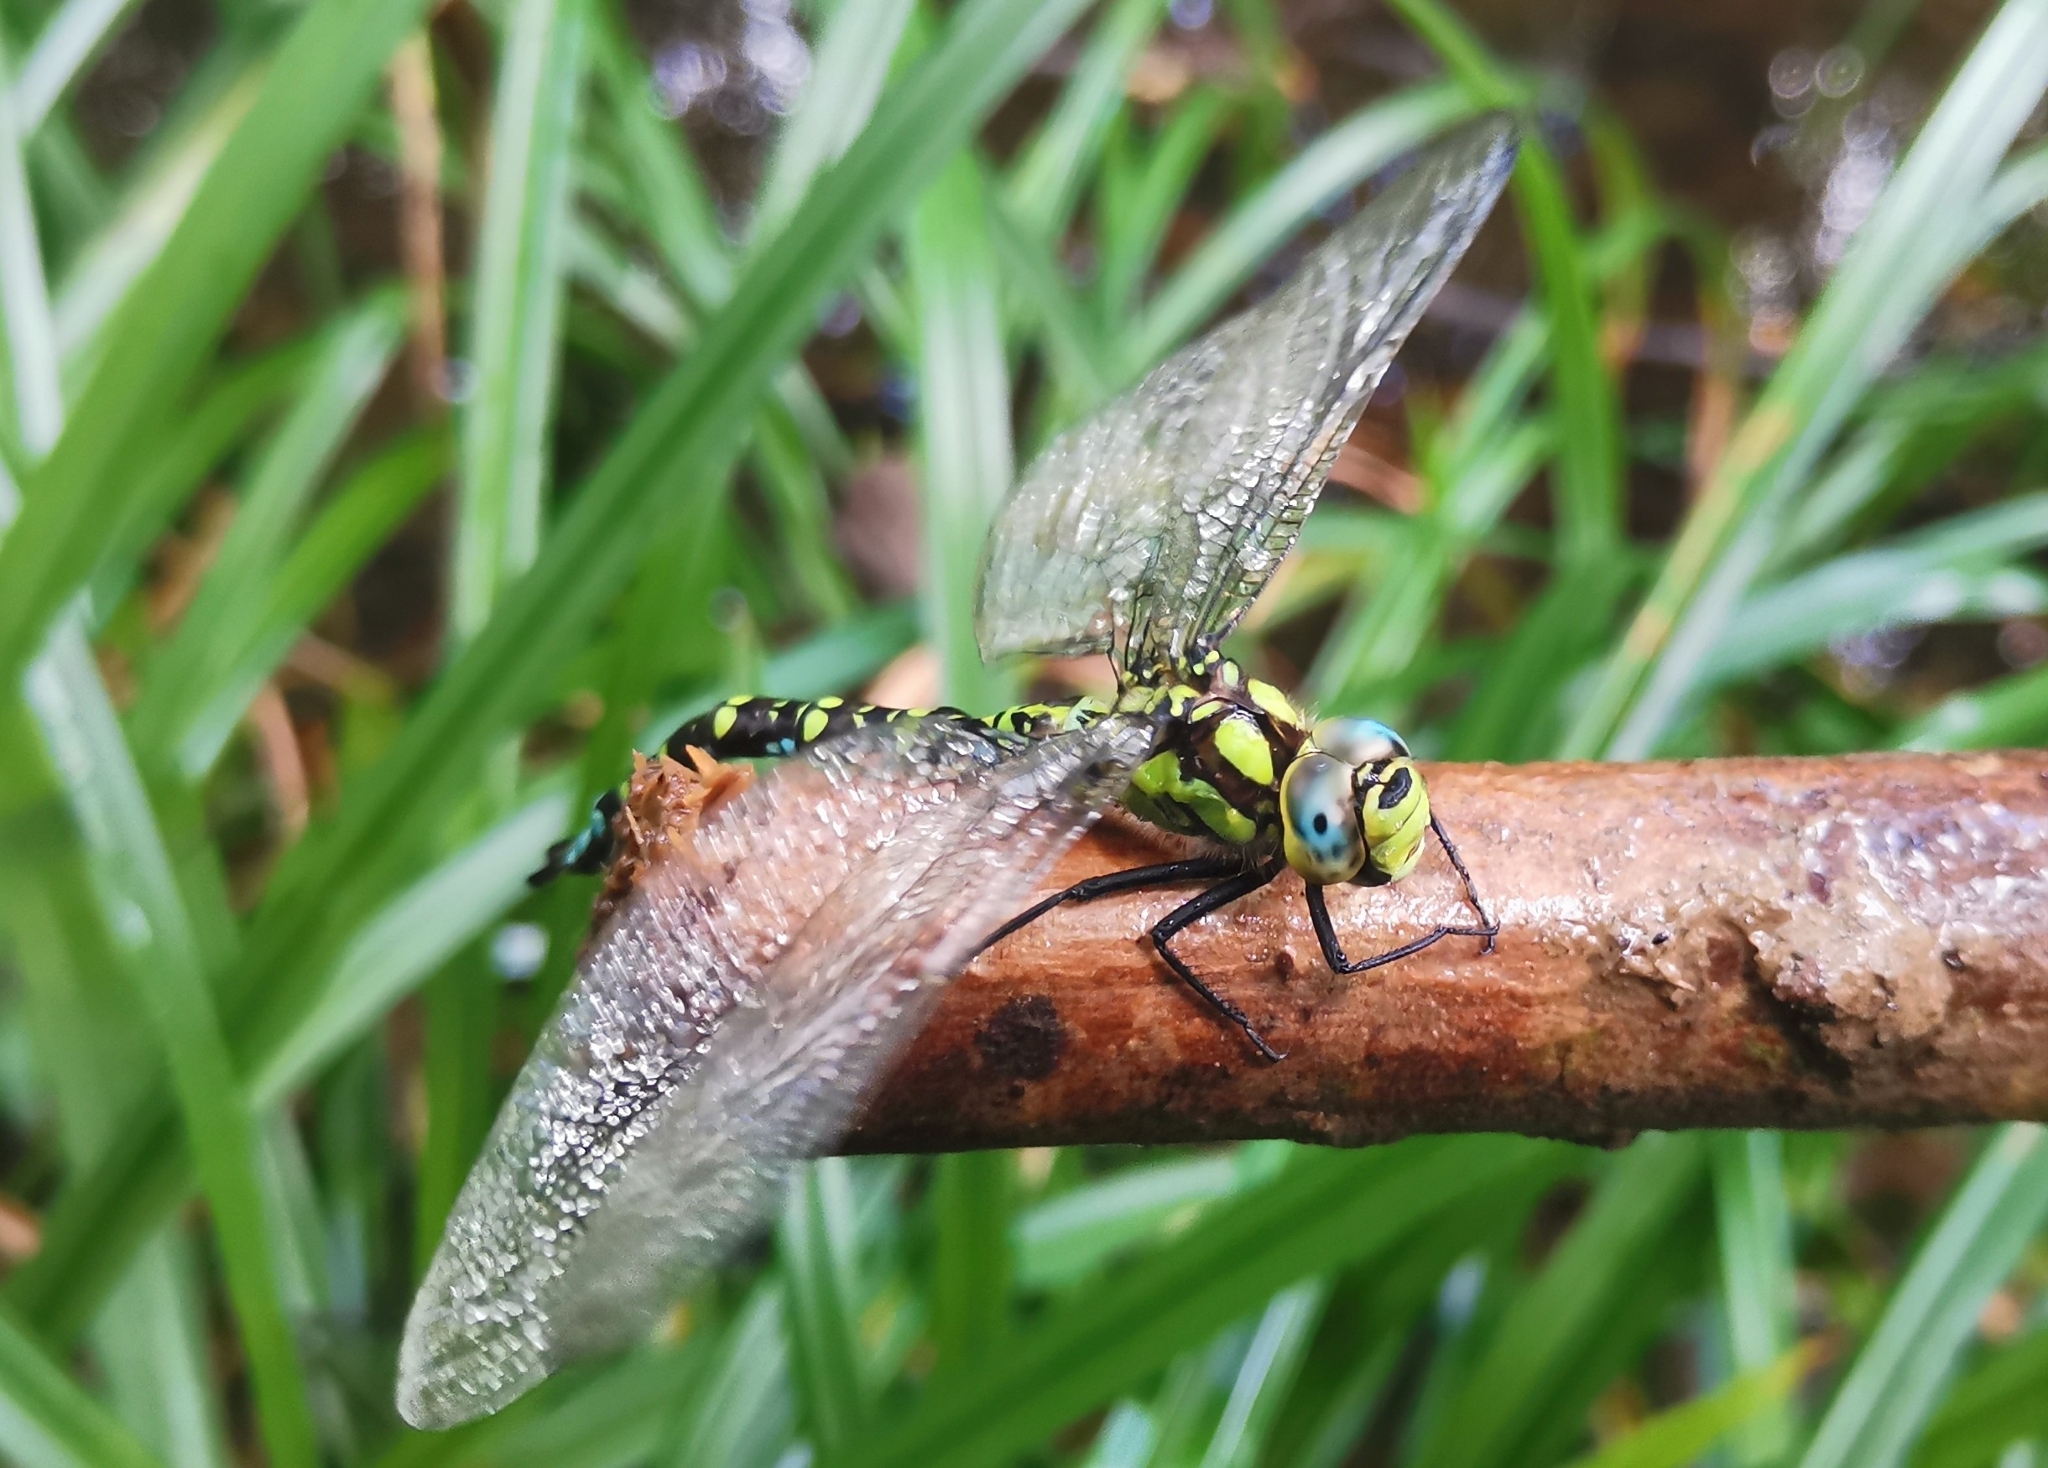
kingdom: Animalia
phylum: Arthropoda
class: Insecta
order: Odonata
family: Aeshnidae
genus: Aeshna
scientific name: Aeshna cyanea
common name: Southern hawker
